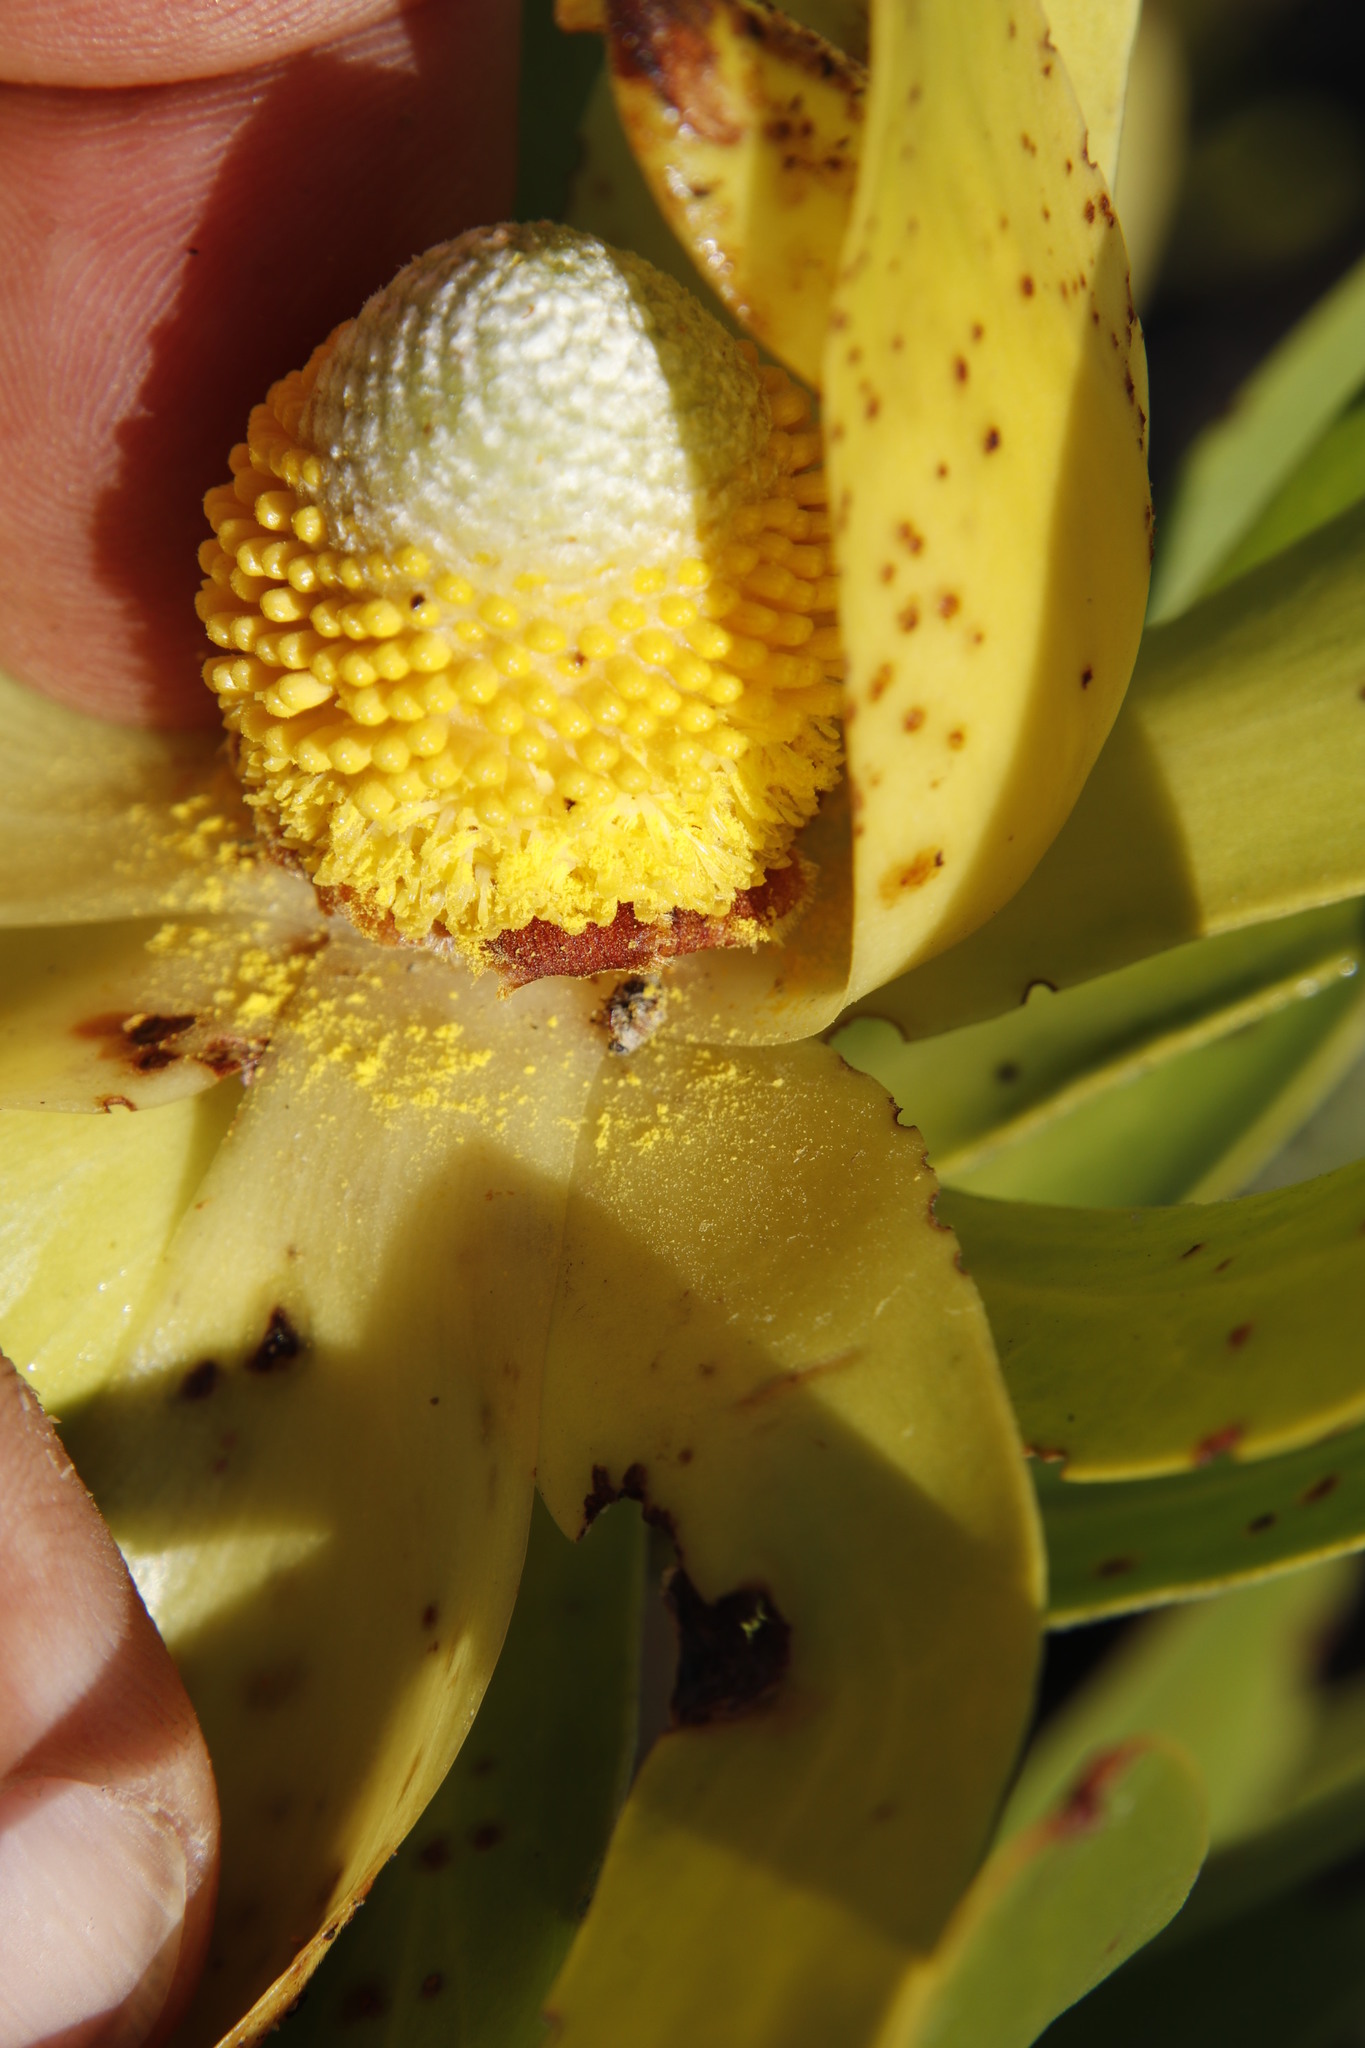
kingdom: Plantae
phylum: Tracheophyta
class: Magnoliopsida
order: Proteales
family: Proteaceae
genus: Leucadendron
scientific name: Leucadendron laureolum
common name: Golden sunshinebush
